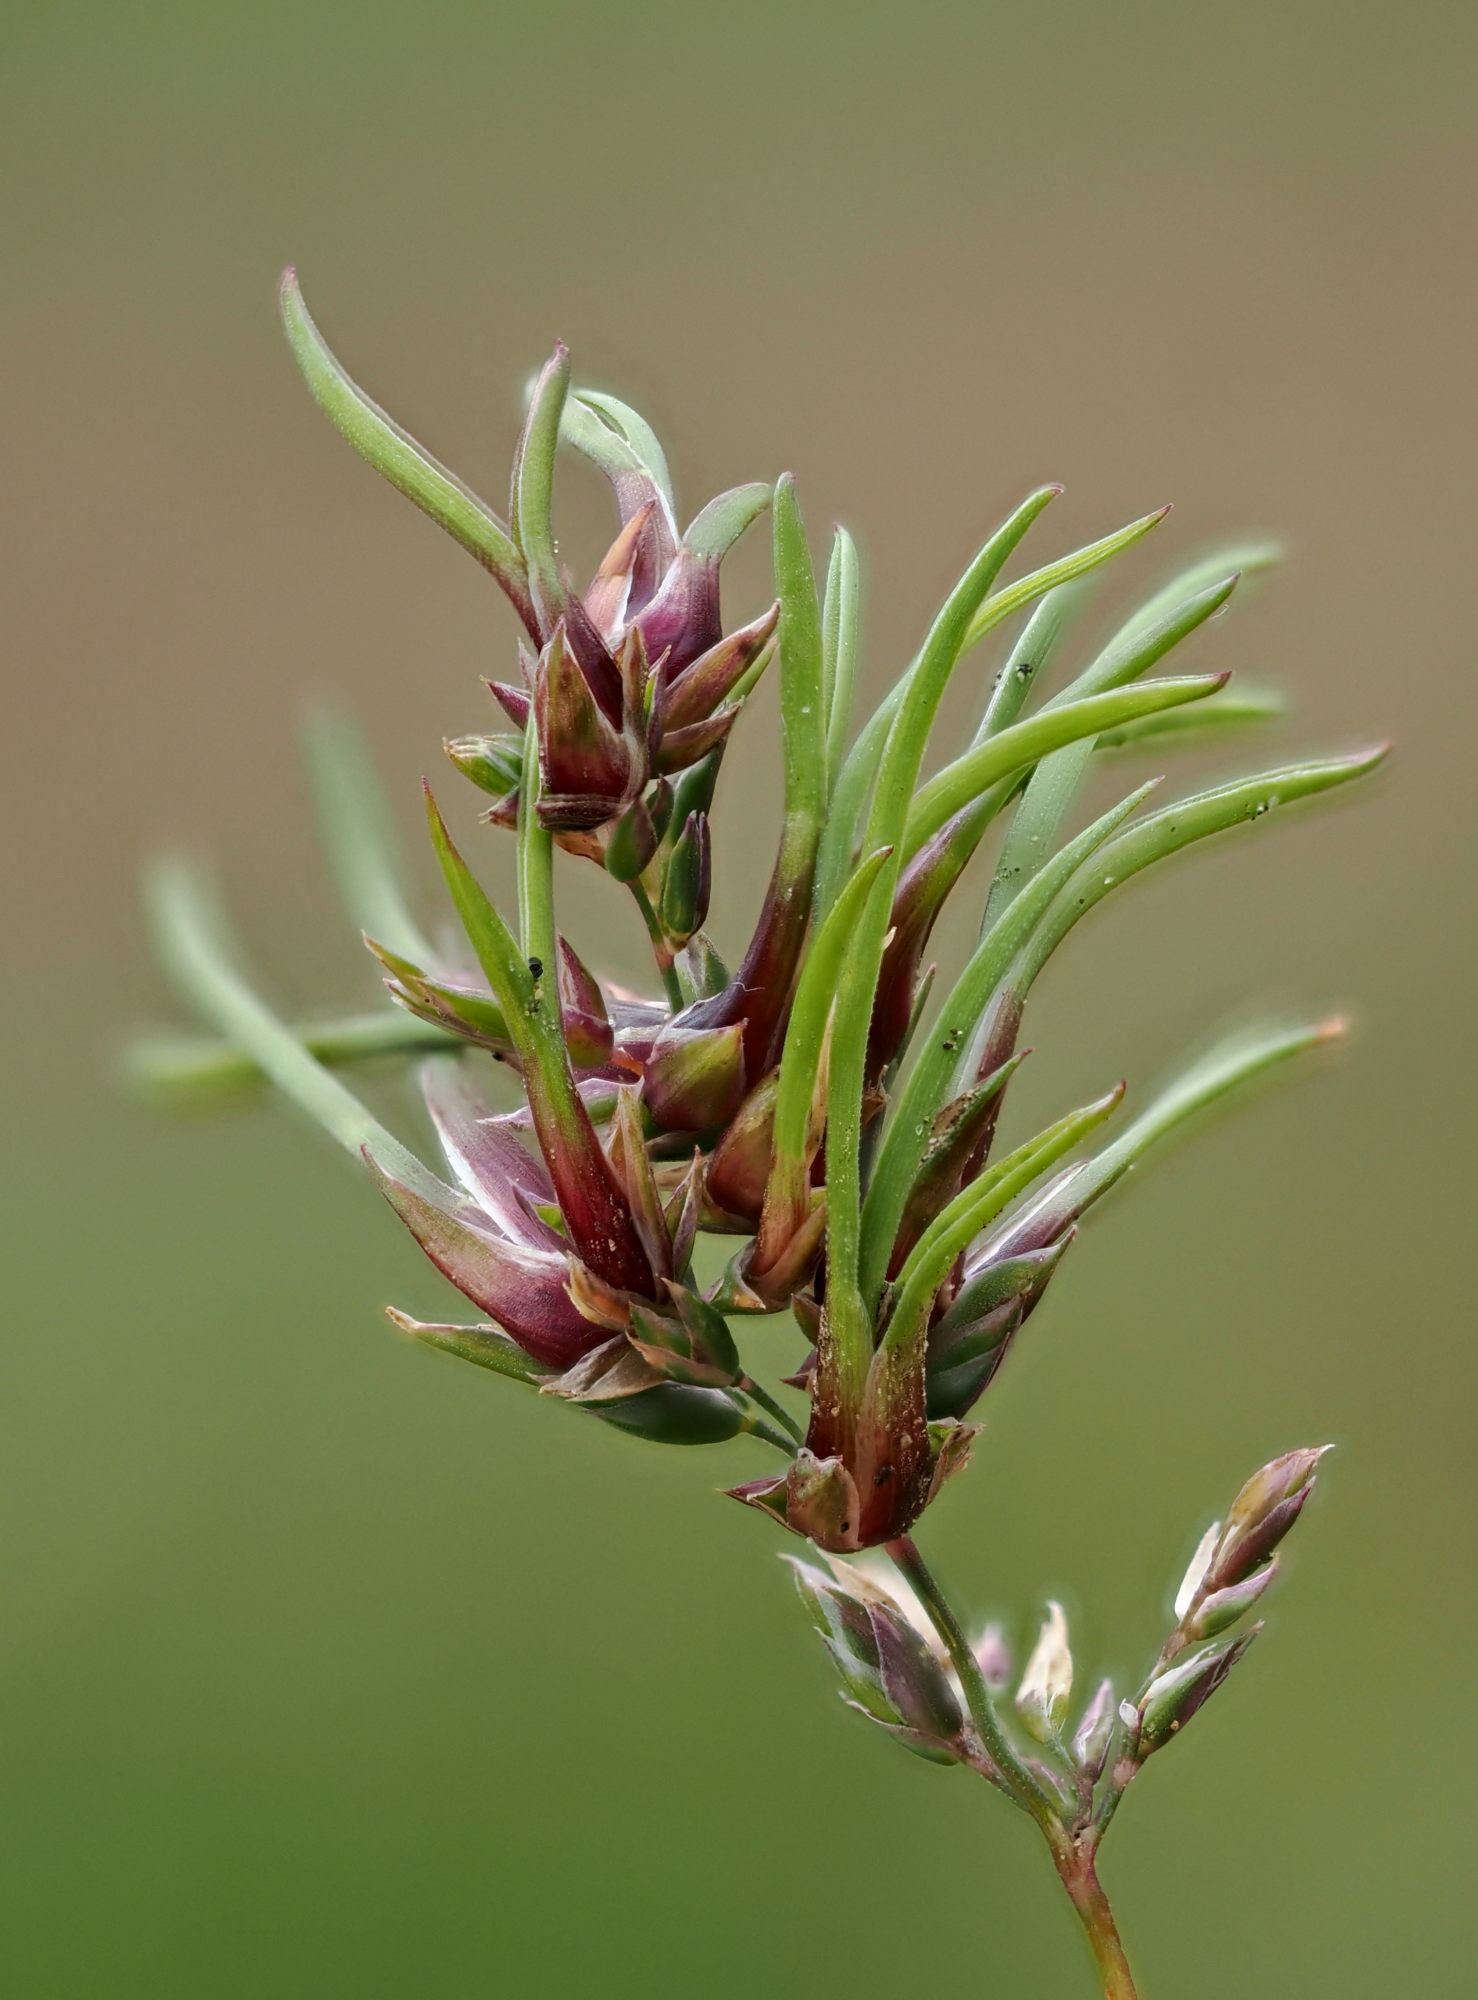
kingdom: Plantae
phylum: Tracheophyta
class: Liliopsida
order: Poales
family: Poaceae
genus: Poa
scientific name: Poa bulbosa
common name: Bulbous bluegrass
